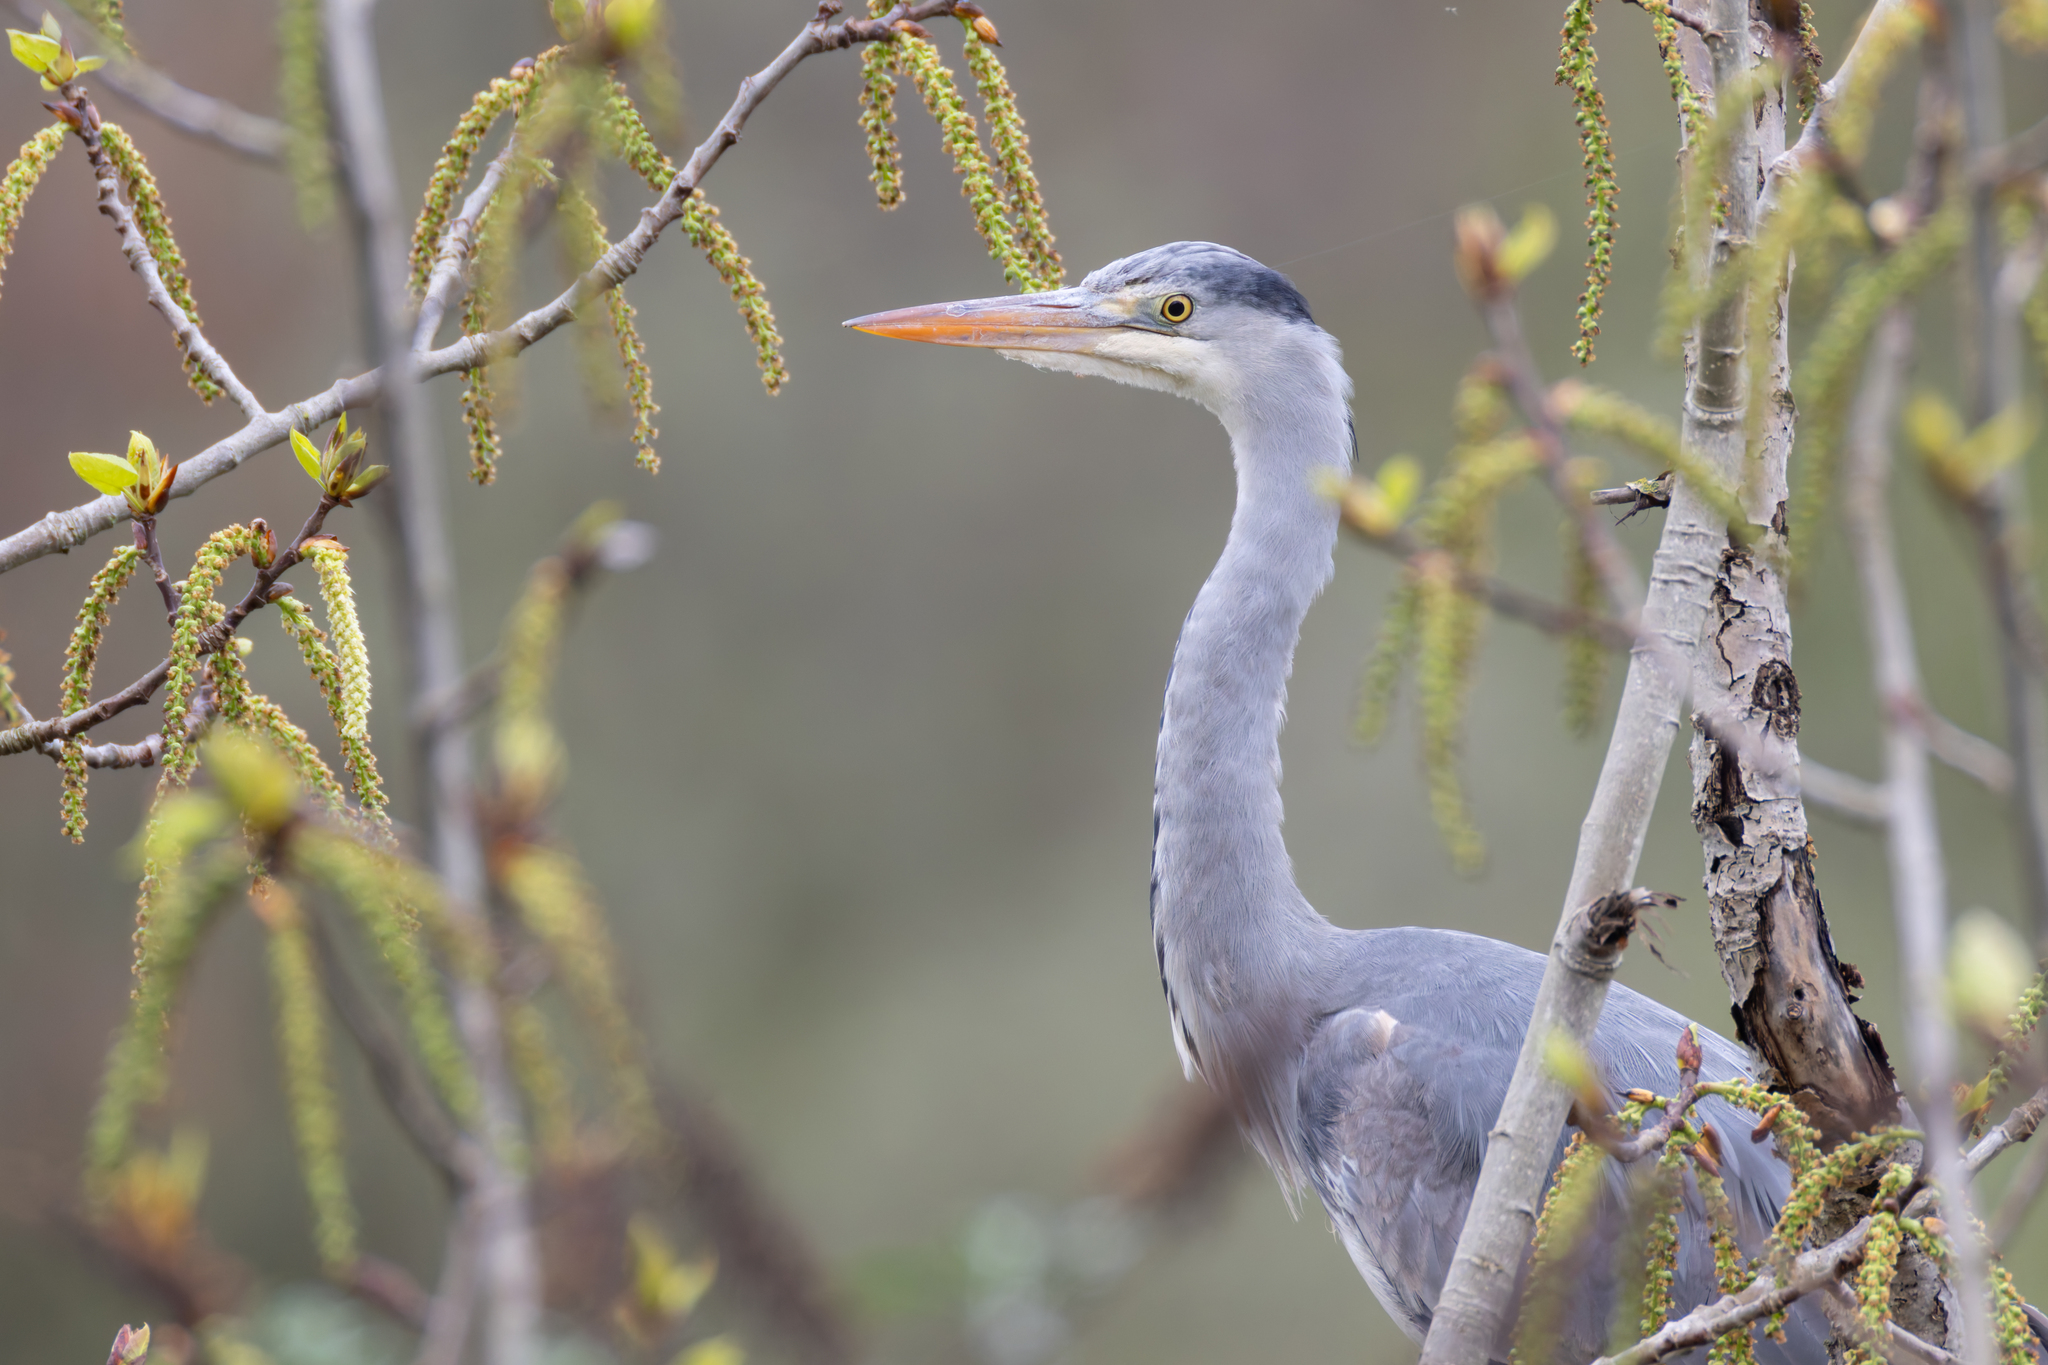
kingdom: Animalia
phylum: Chordata
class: Aves
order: Pelecaniformes
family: Ardeidae
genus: Ardea
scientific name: Ardea cinerea
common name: Grey heron
